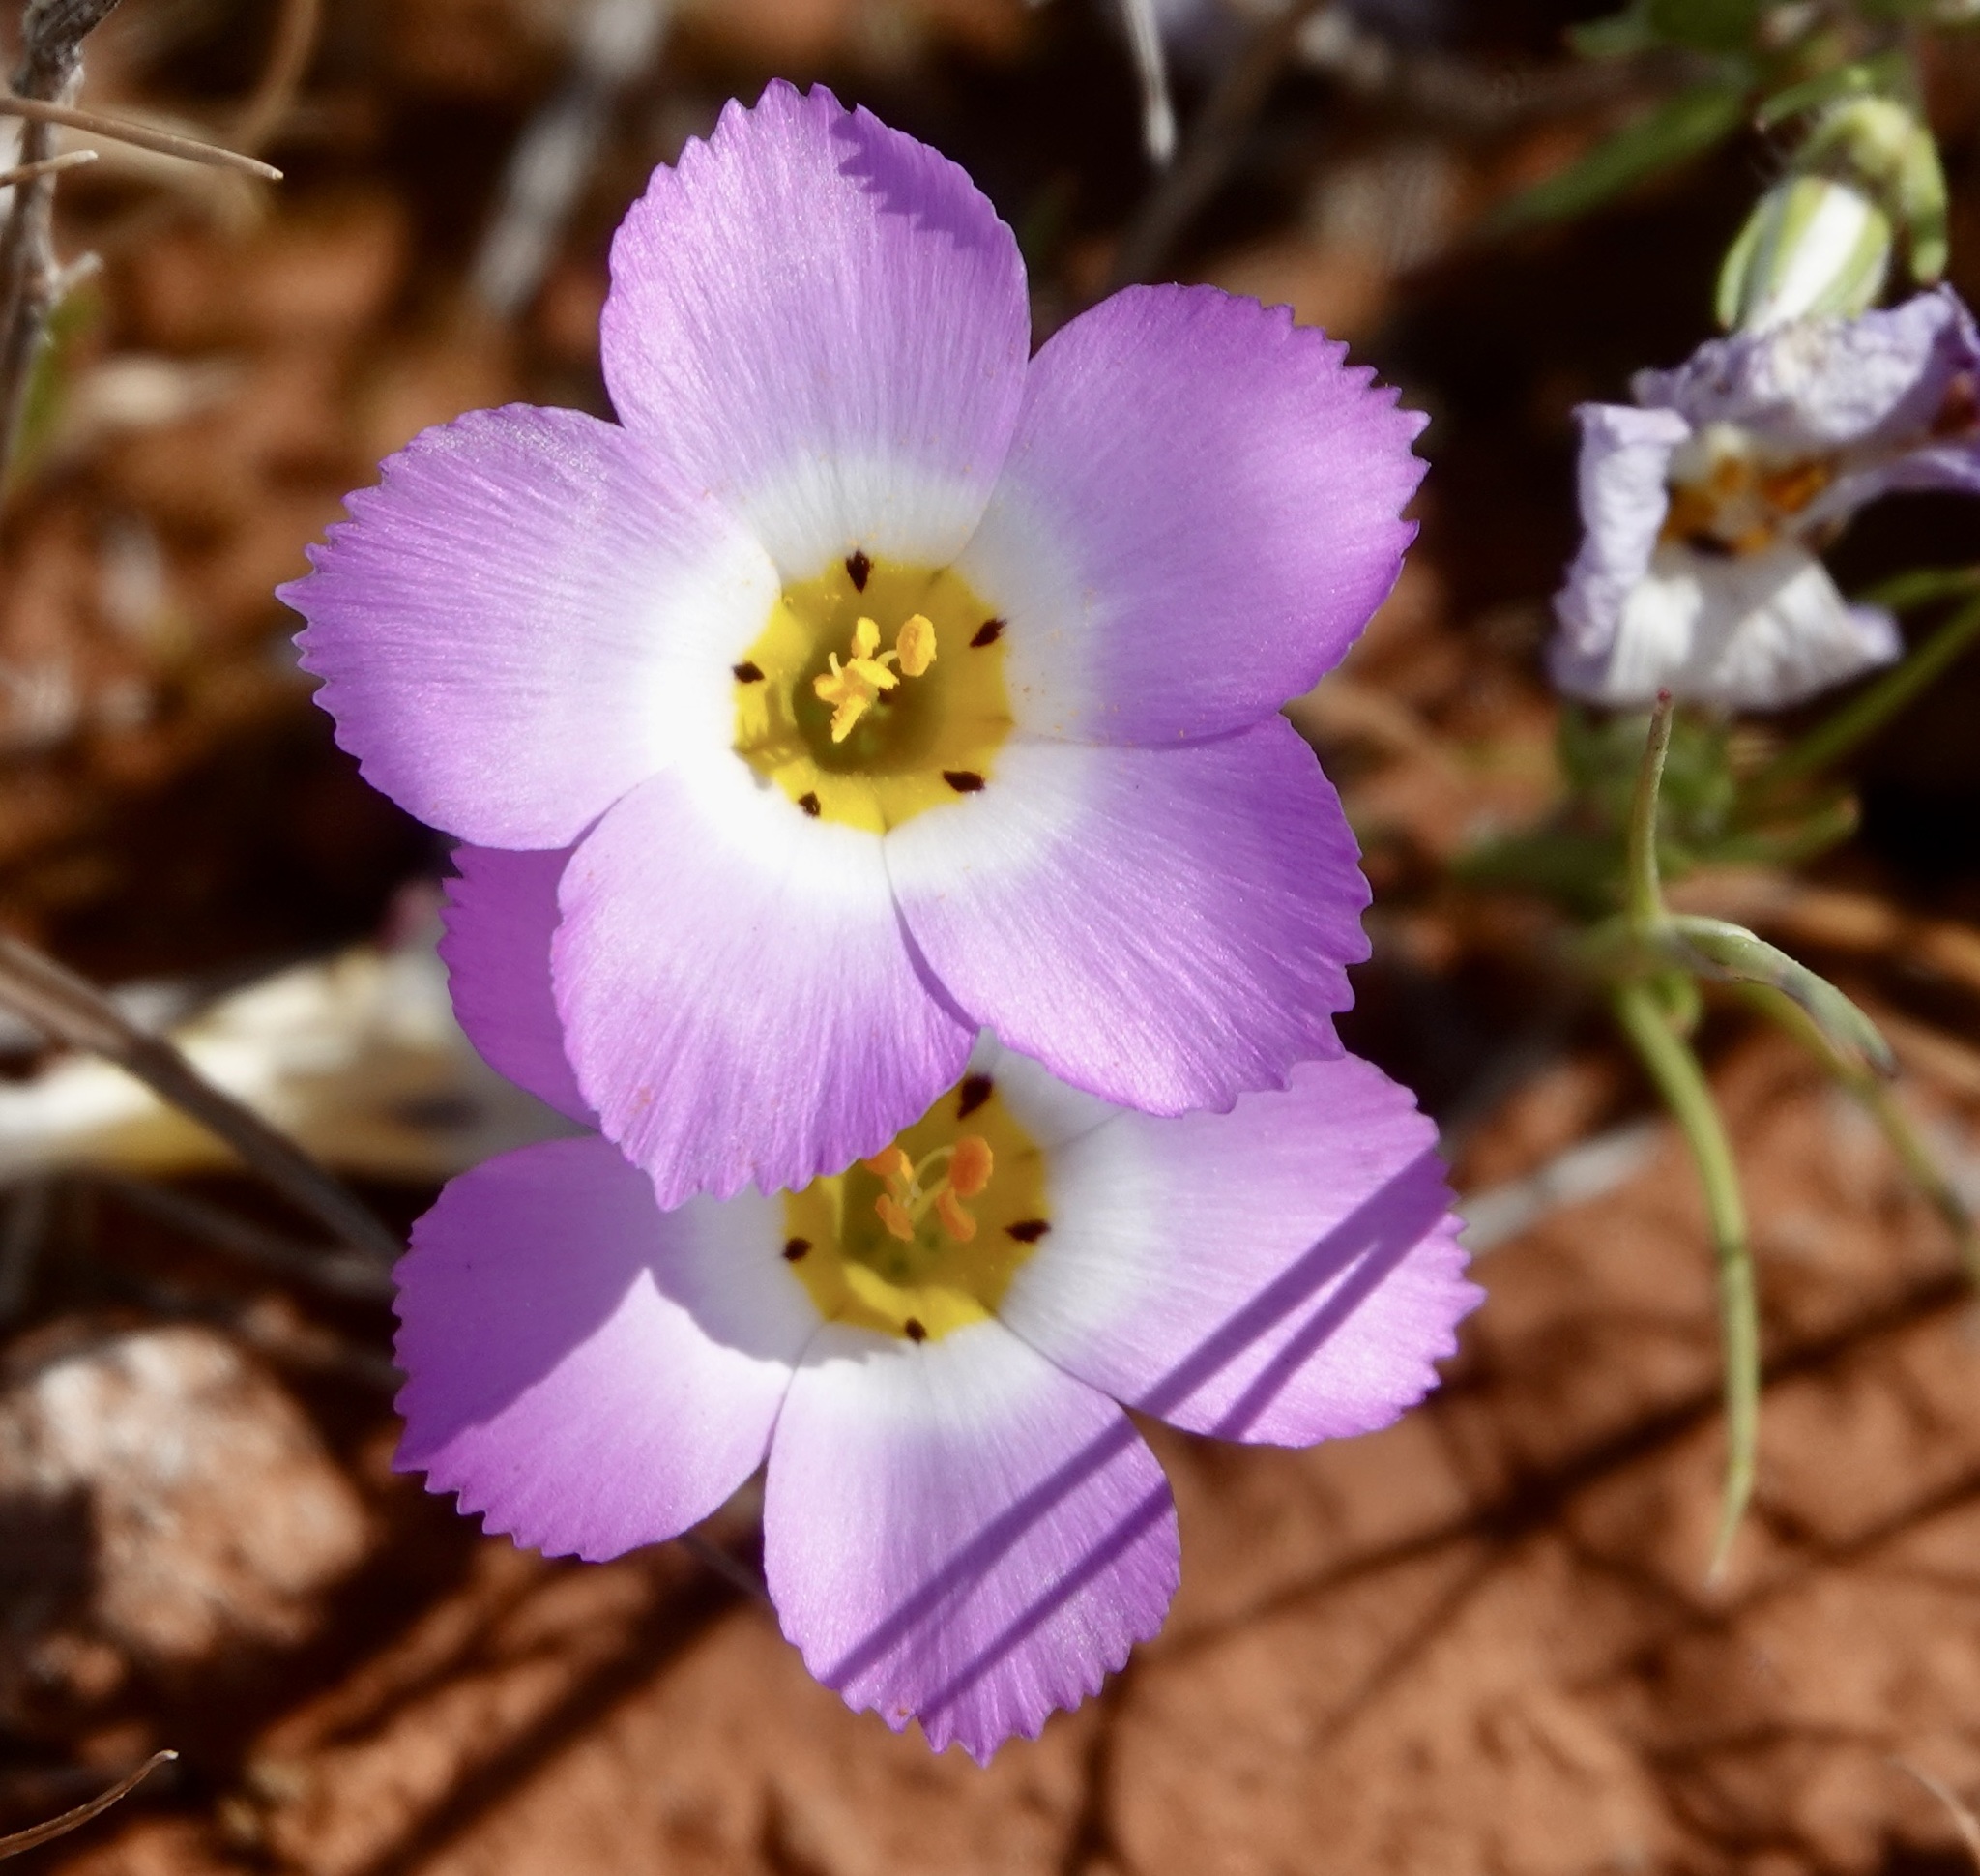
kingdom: Plantae
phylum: Tracheophyta
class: Magnoliopsida
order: Ericales
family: Polemoniaceae
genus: Linanthus
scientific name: Linanthus dianthiflorus
